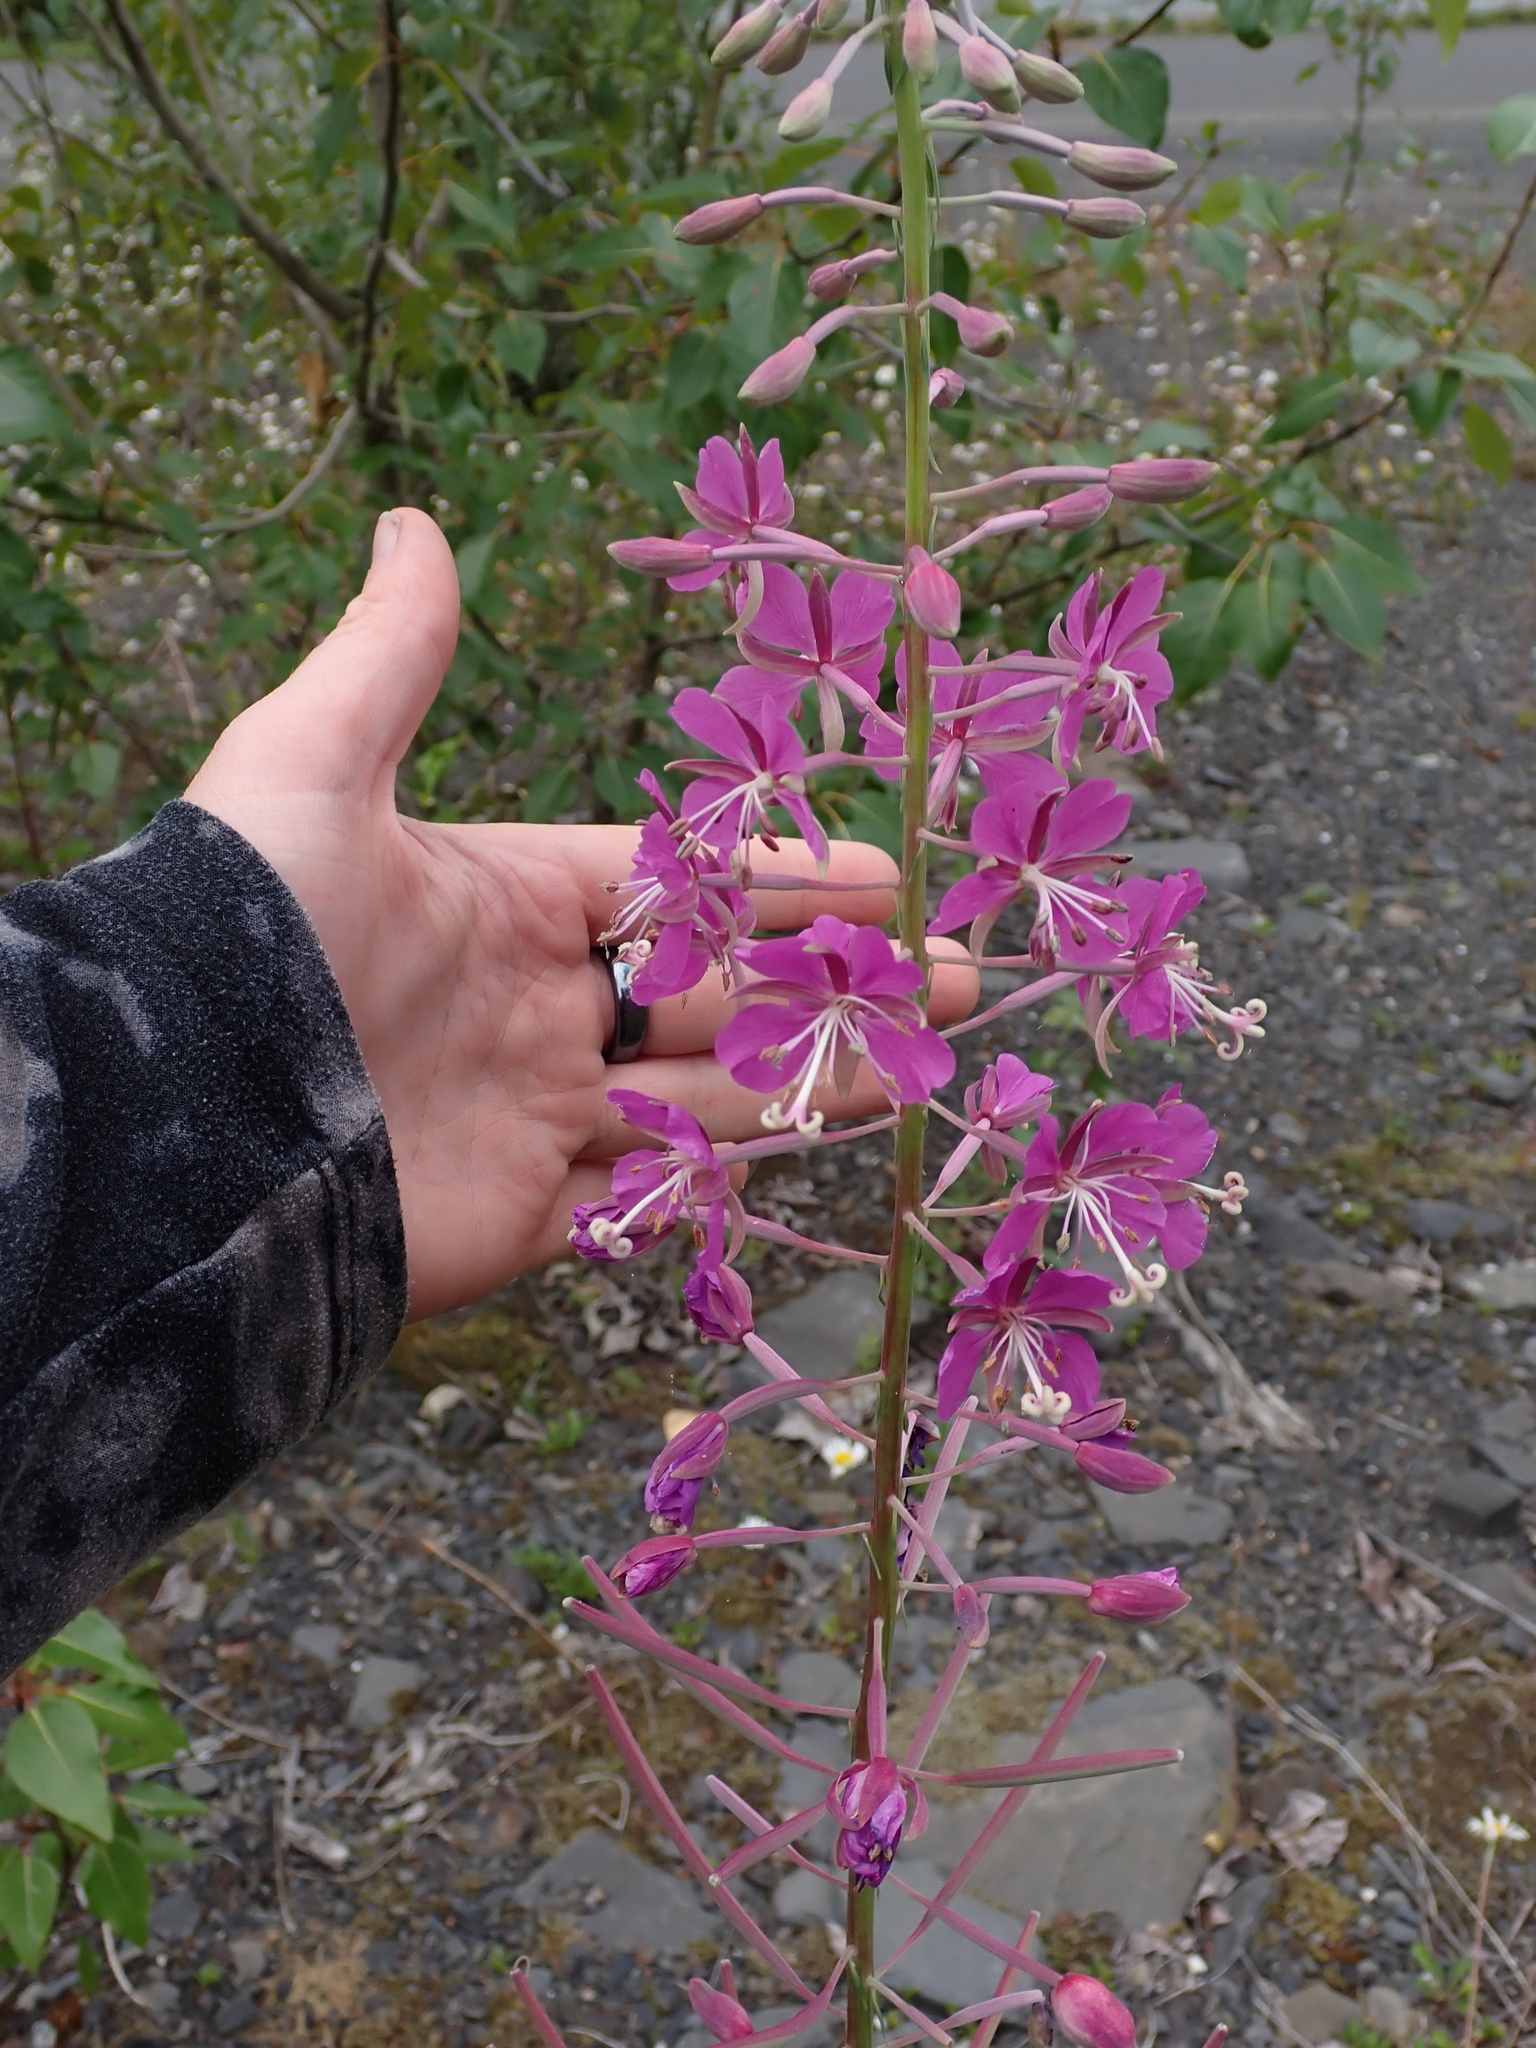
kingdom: Plantae
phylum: Tracheophyta
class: Magnoliopsida
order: Myrtales
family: Onagraceae
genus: Chamaenerion
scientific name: Chamaenerion angustifolium
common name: Fireweed
